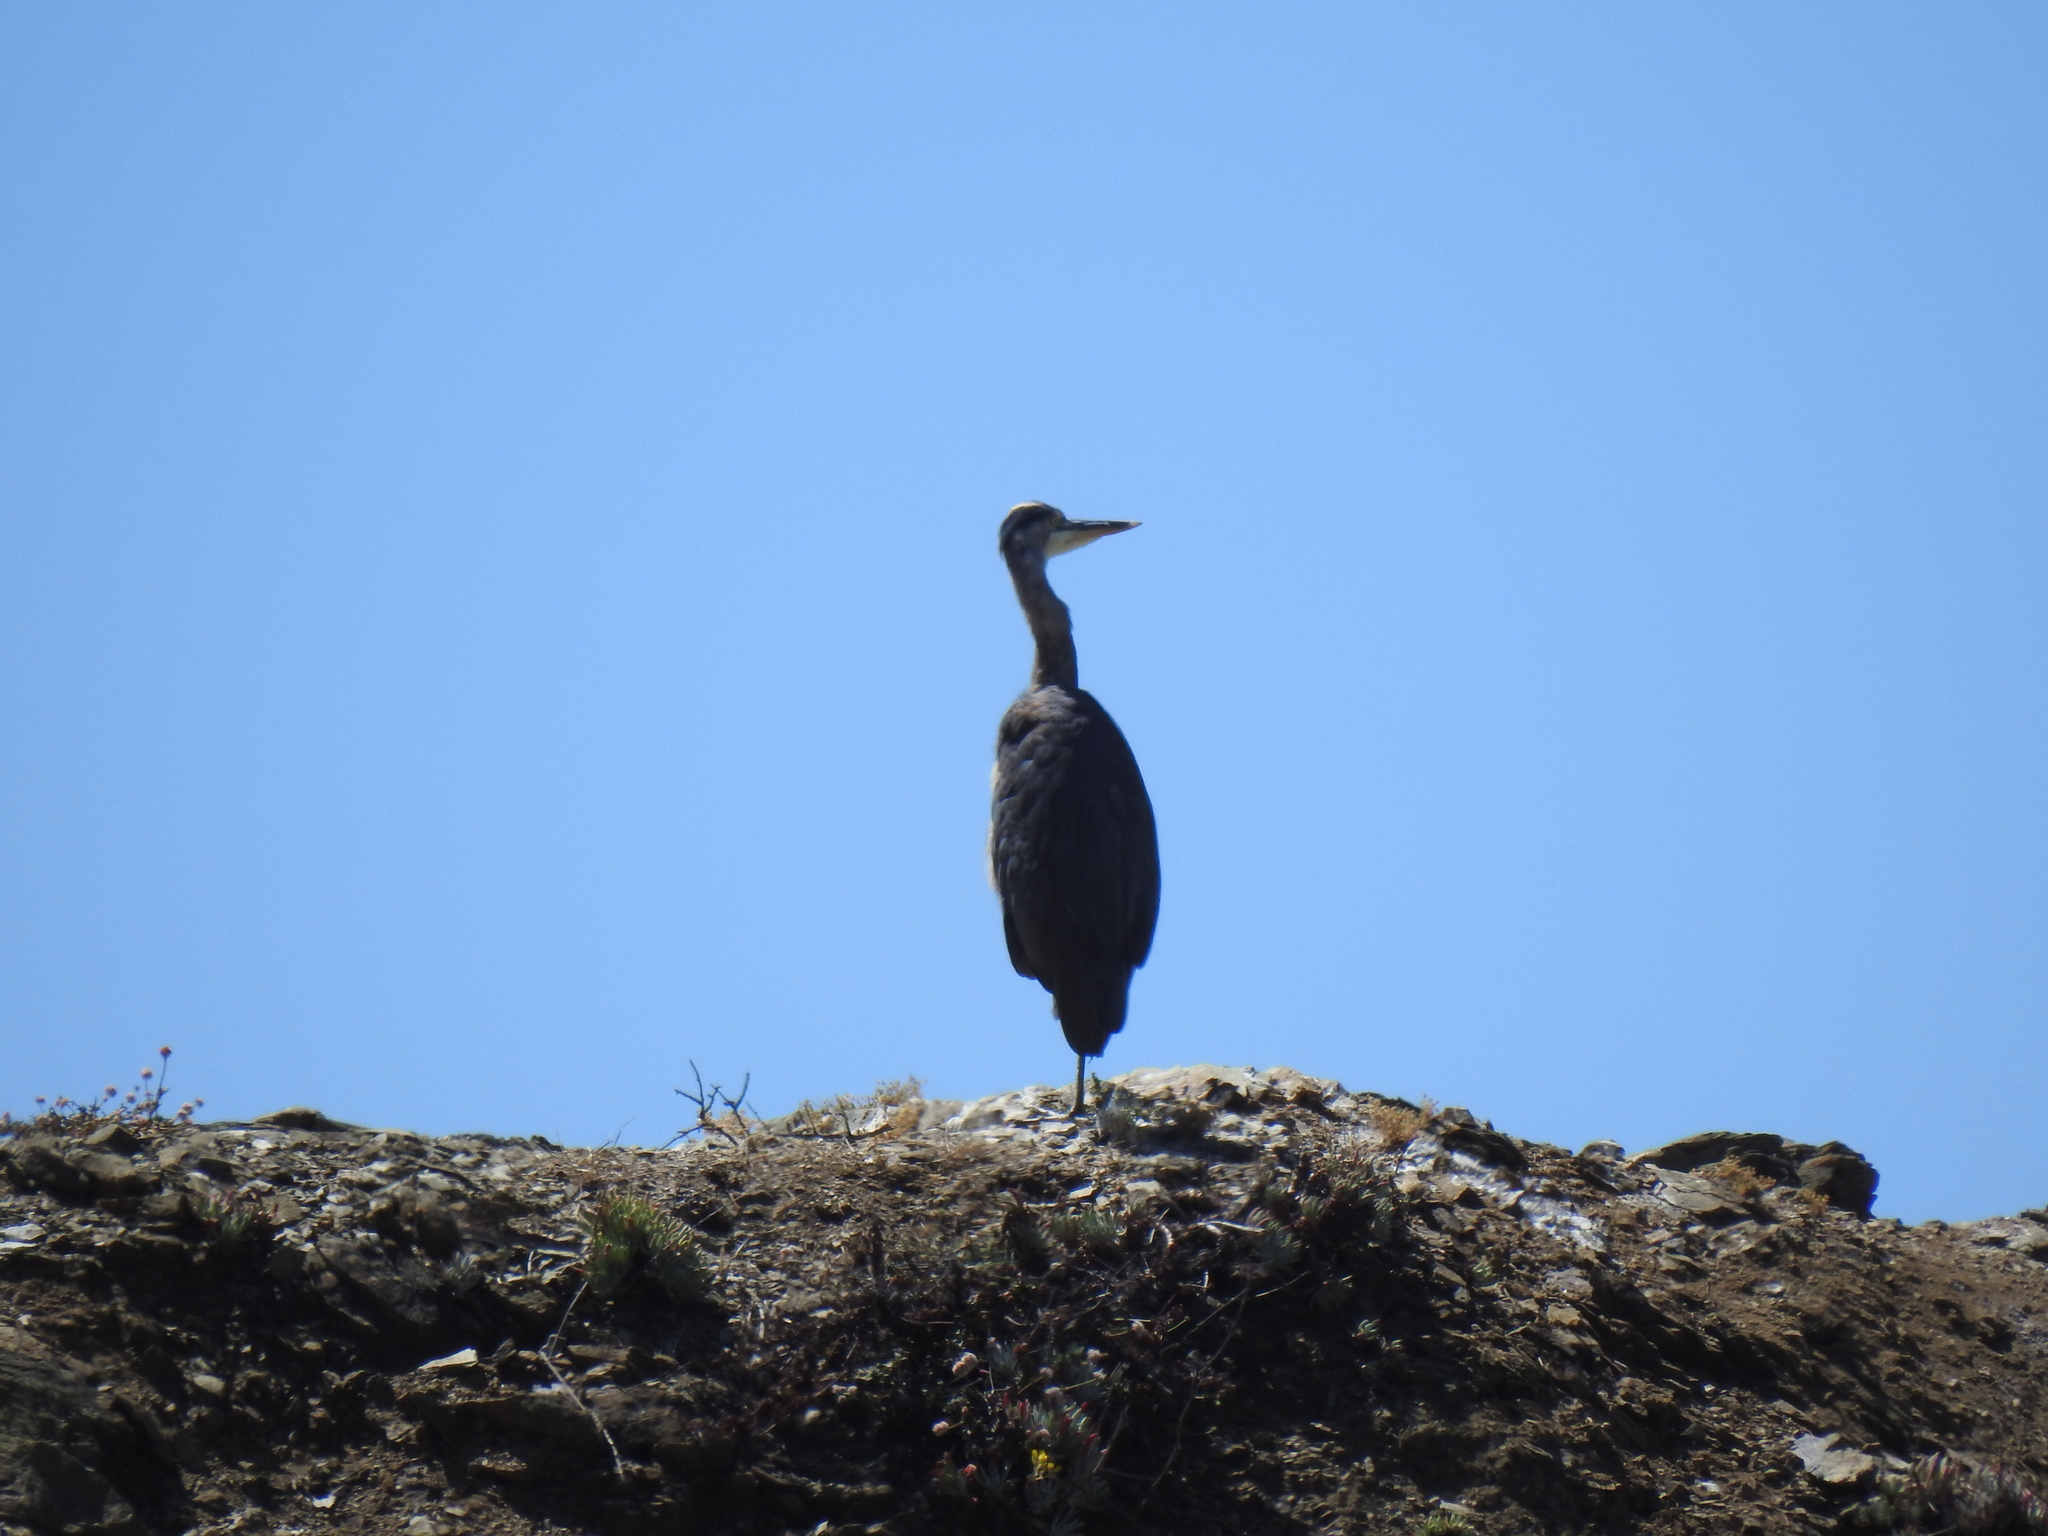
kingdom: Animalia
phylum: Chordata
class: Aves
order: Pelecaniformes
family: Ardeidae
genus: Ardea
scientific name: Ardea herodias
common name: Great blue heron
